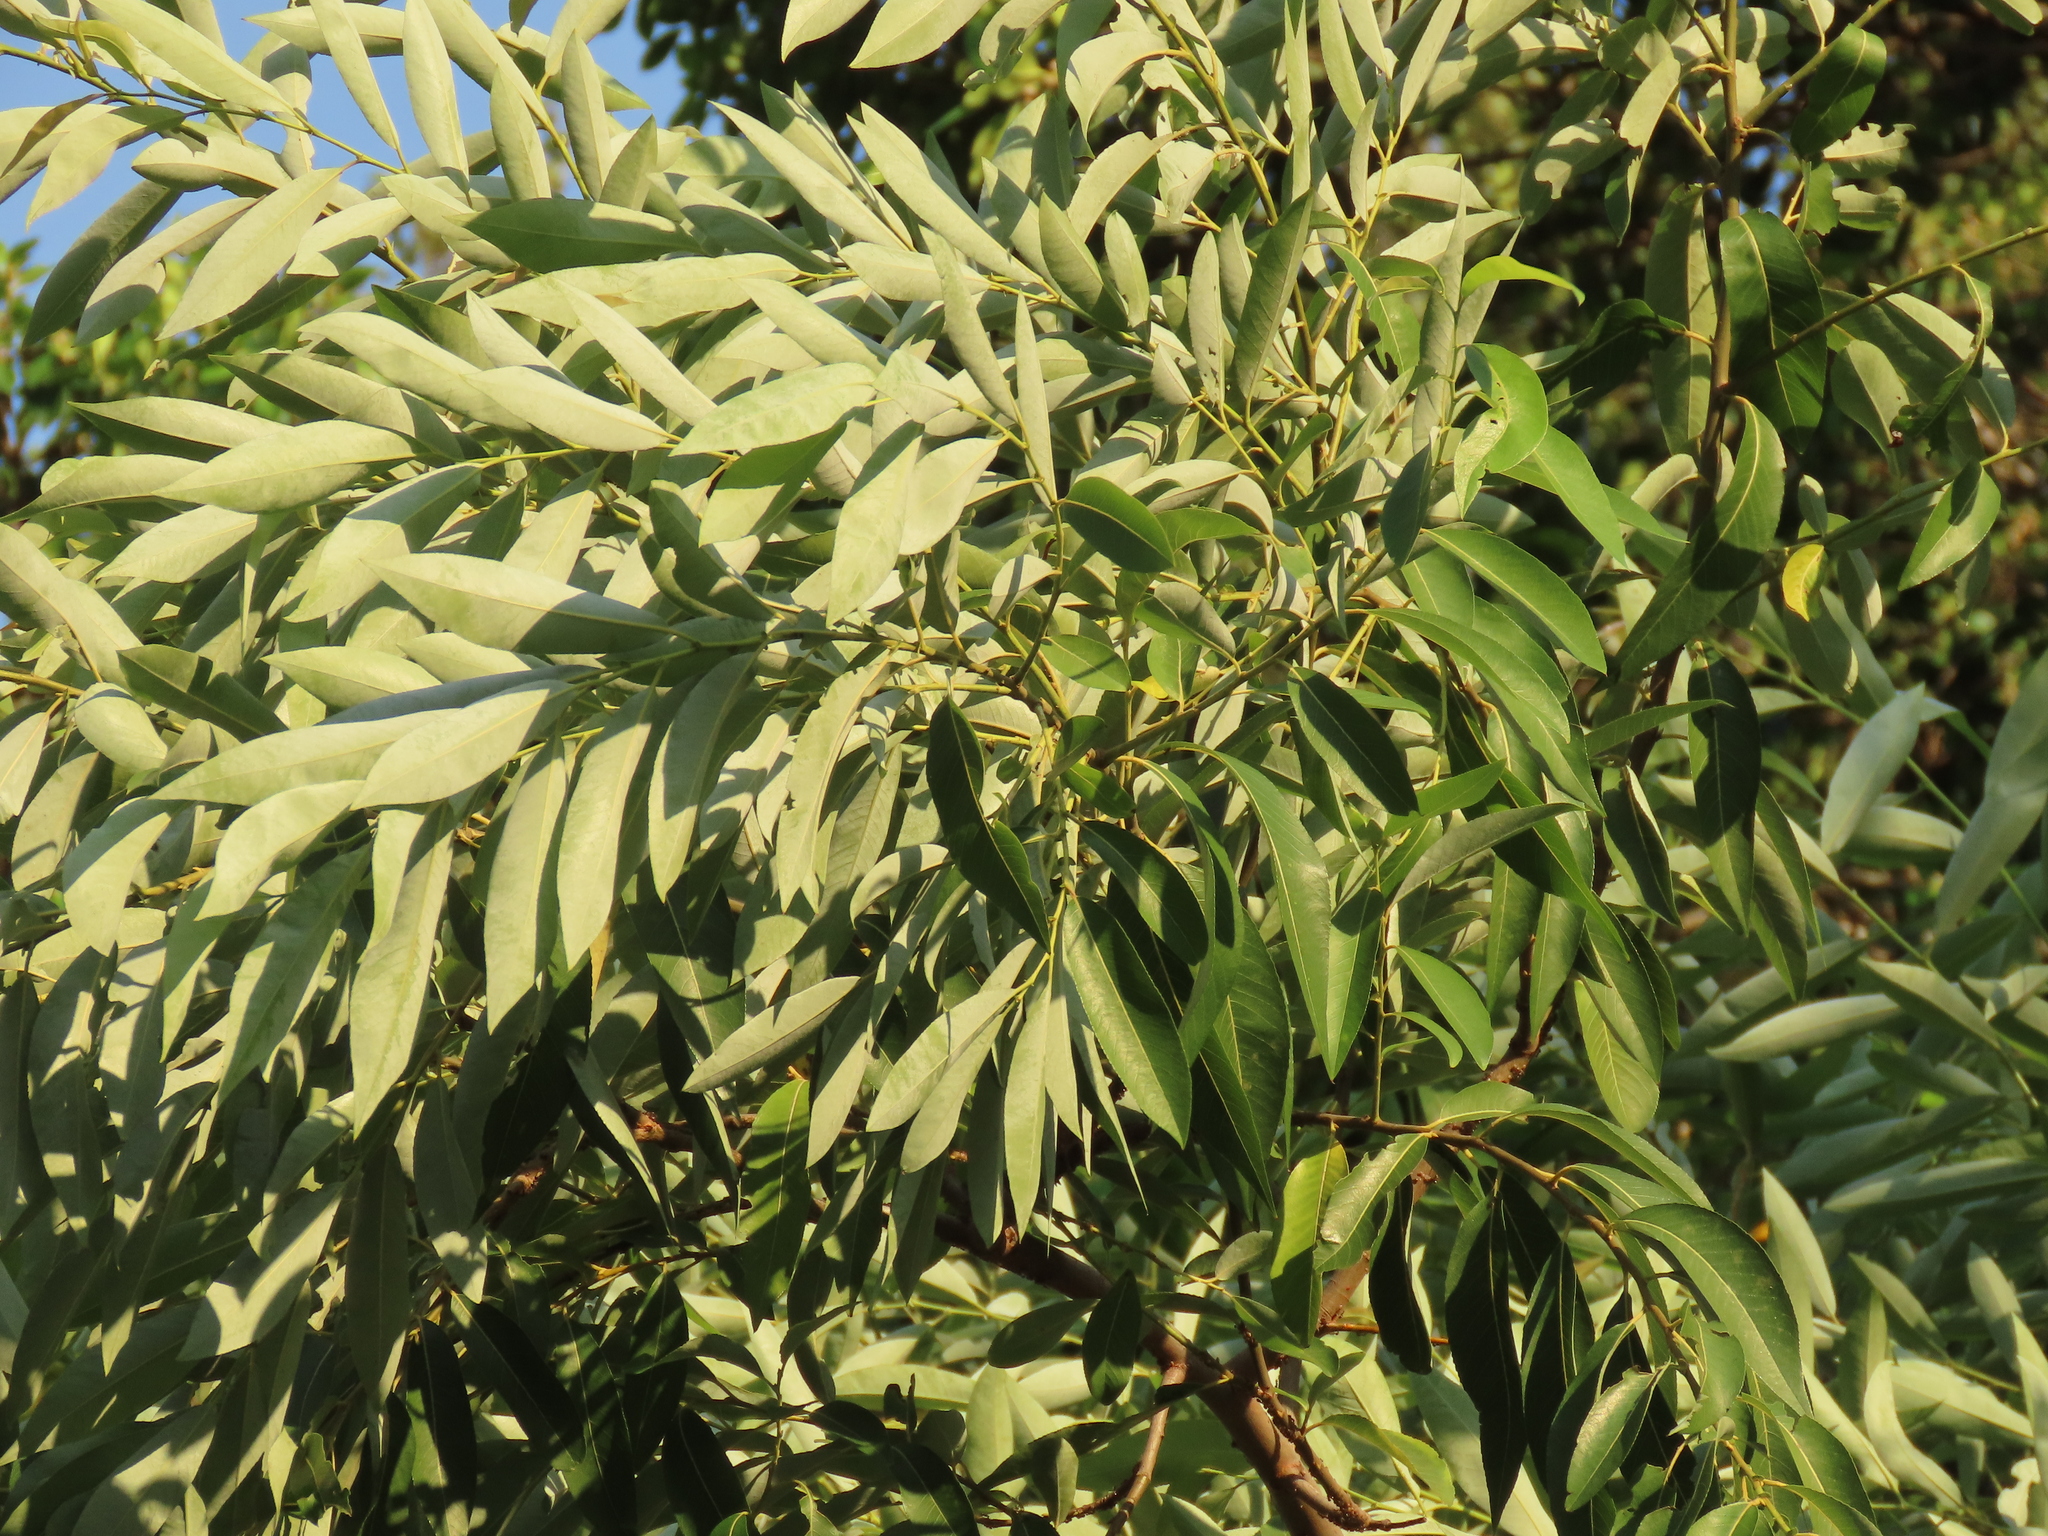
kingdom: Plantae
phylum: Tracheophyta
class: Magnoliopsida
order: Malpighiales
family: Salicaceae
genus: Salix
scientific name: Salix mesnyi
